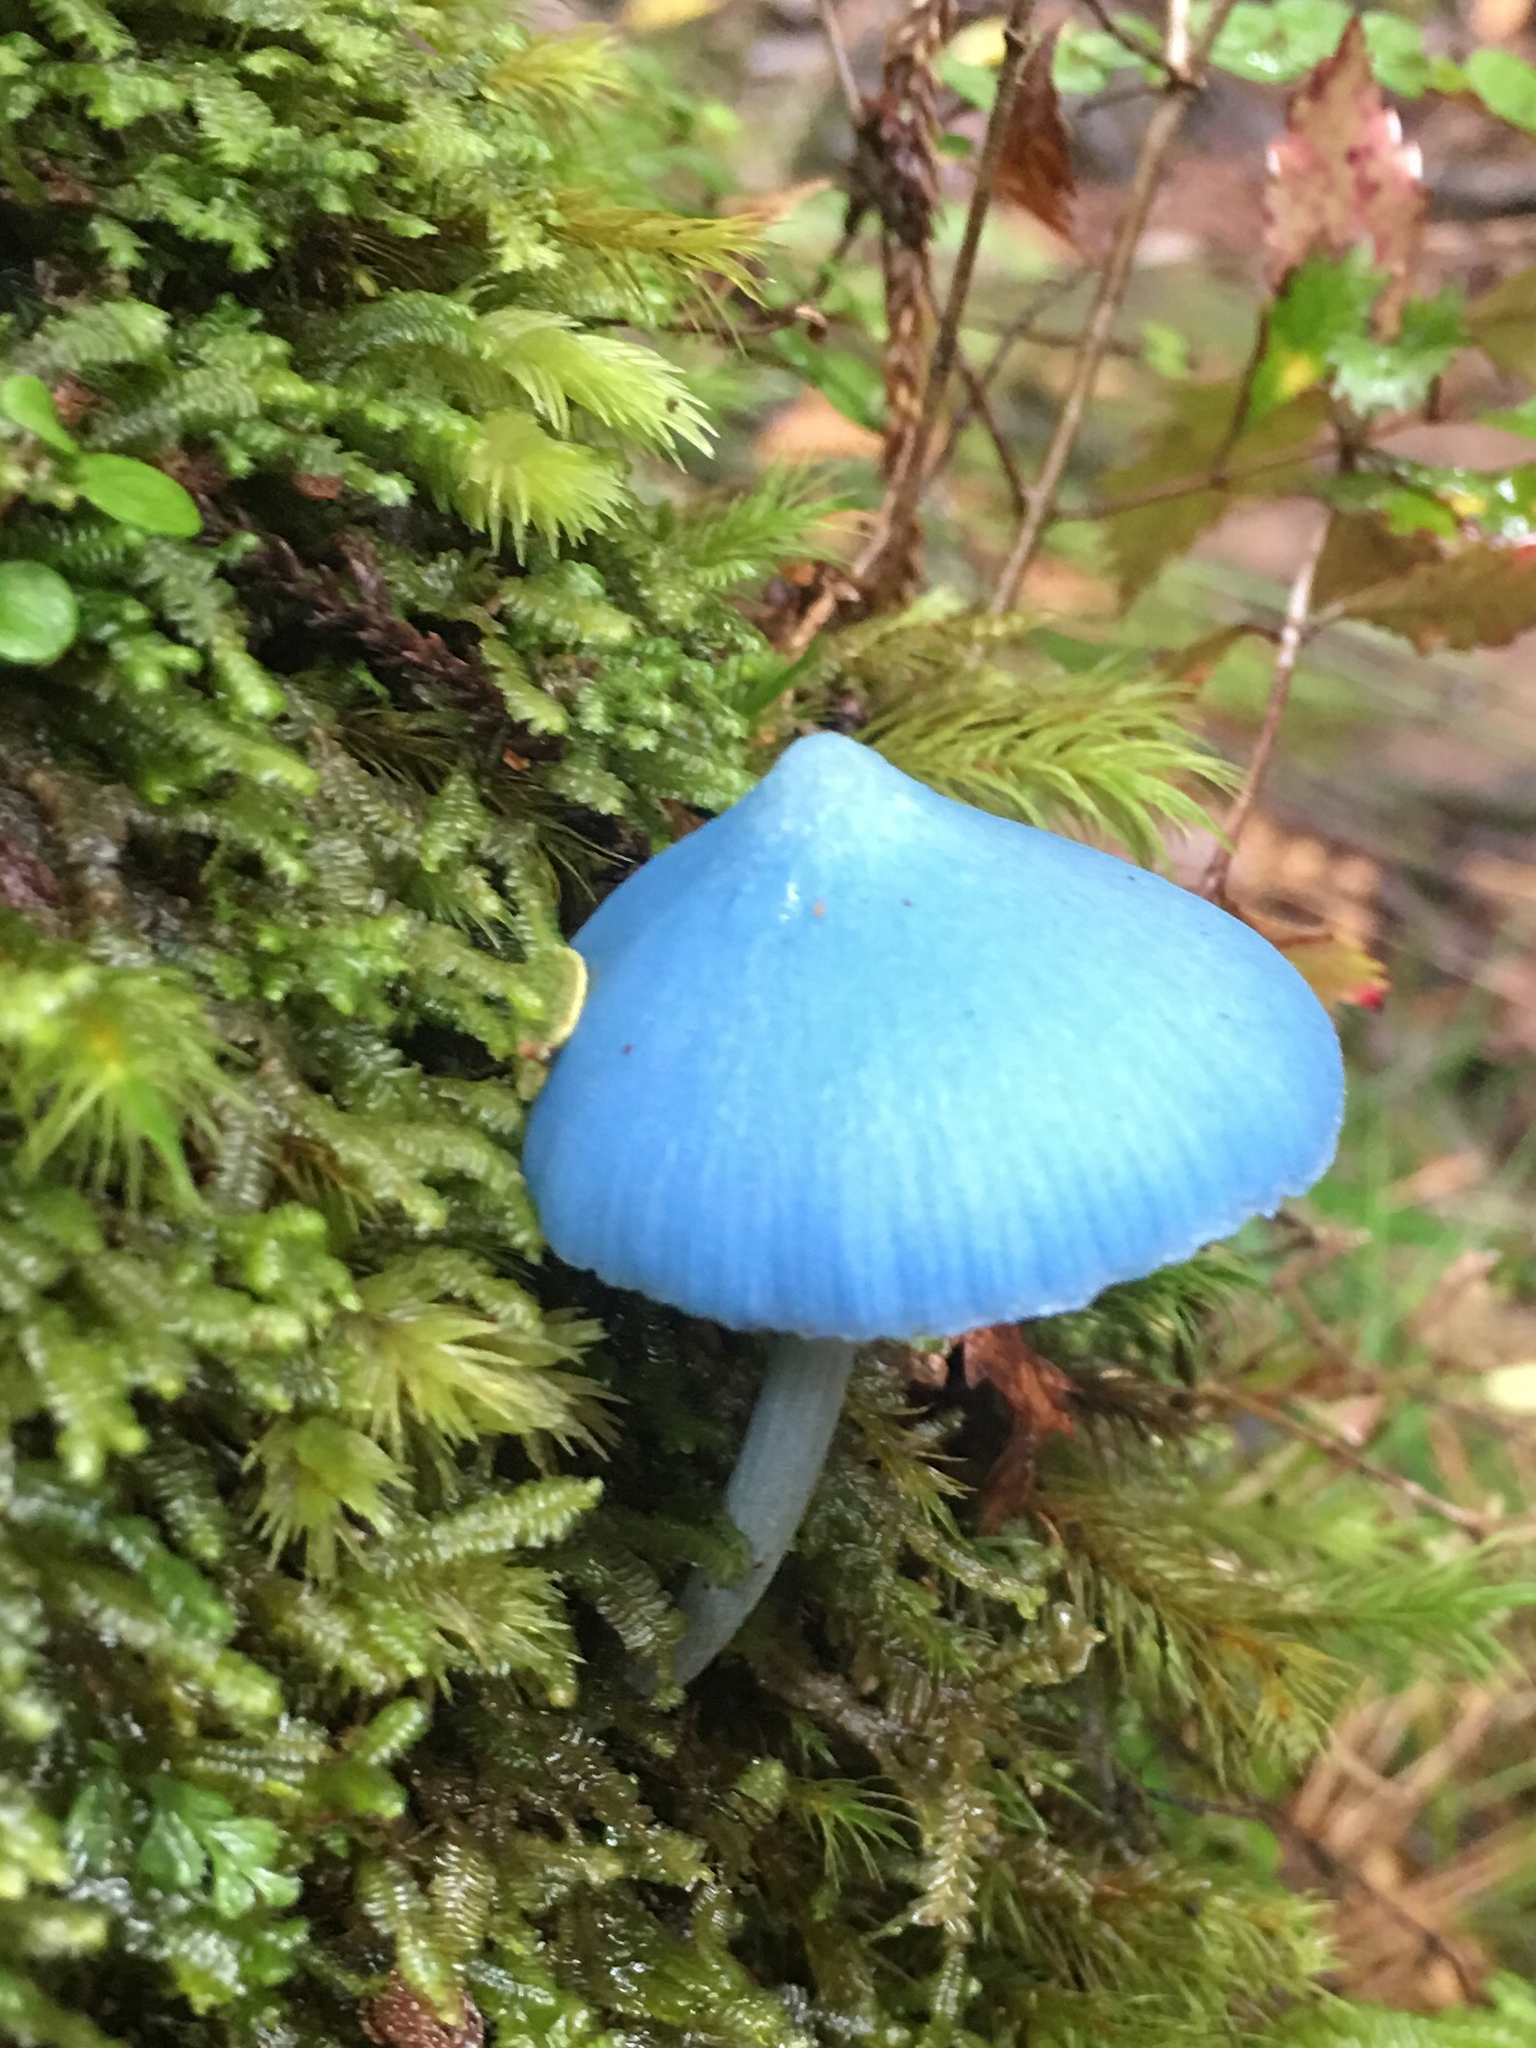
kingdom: Fungi
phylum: Basidiomycota
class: Agaricomycetes
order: Agaricales
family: Entolomataceae
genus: Entoloma
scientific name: Entoloma hochstetteri
